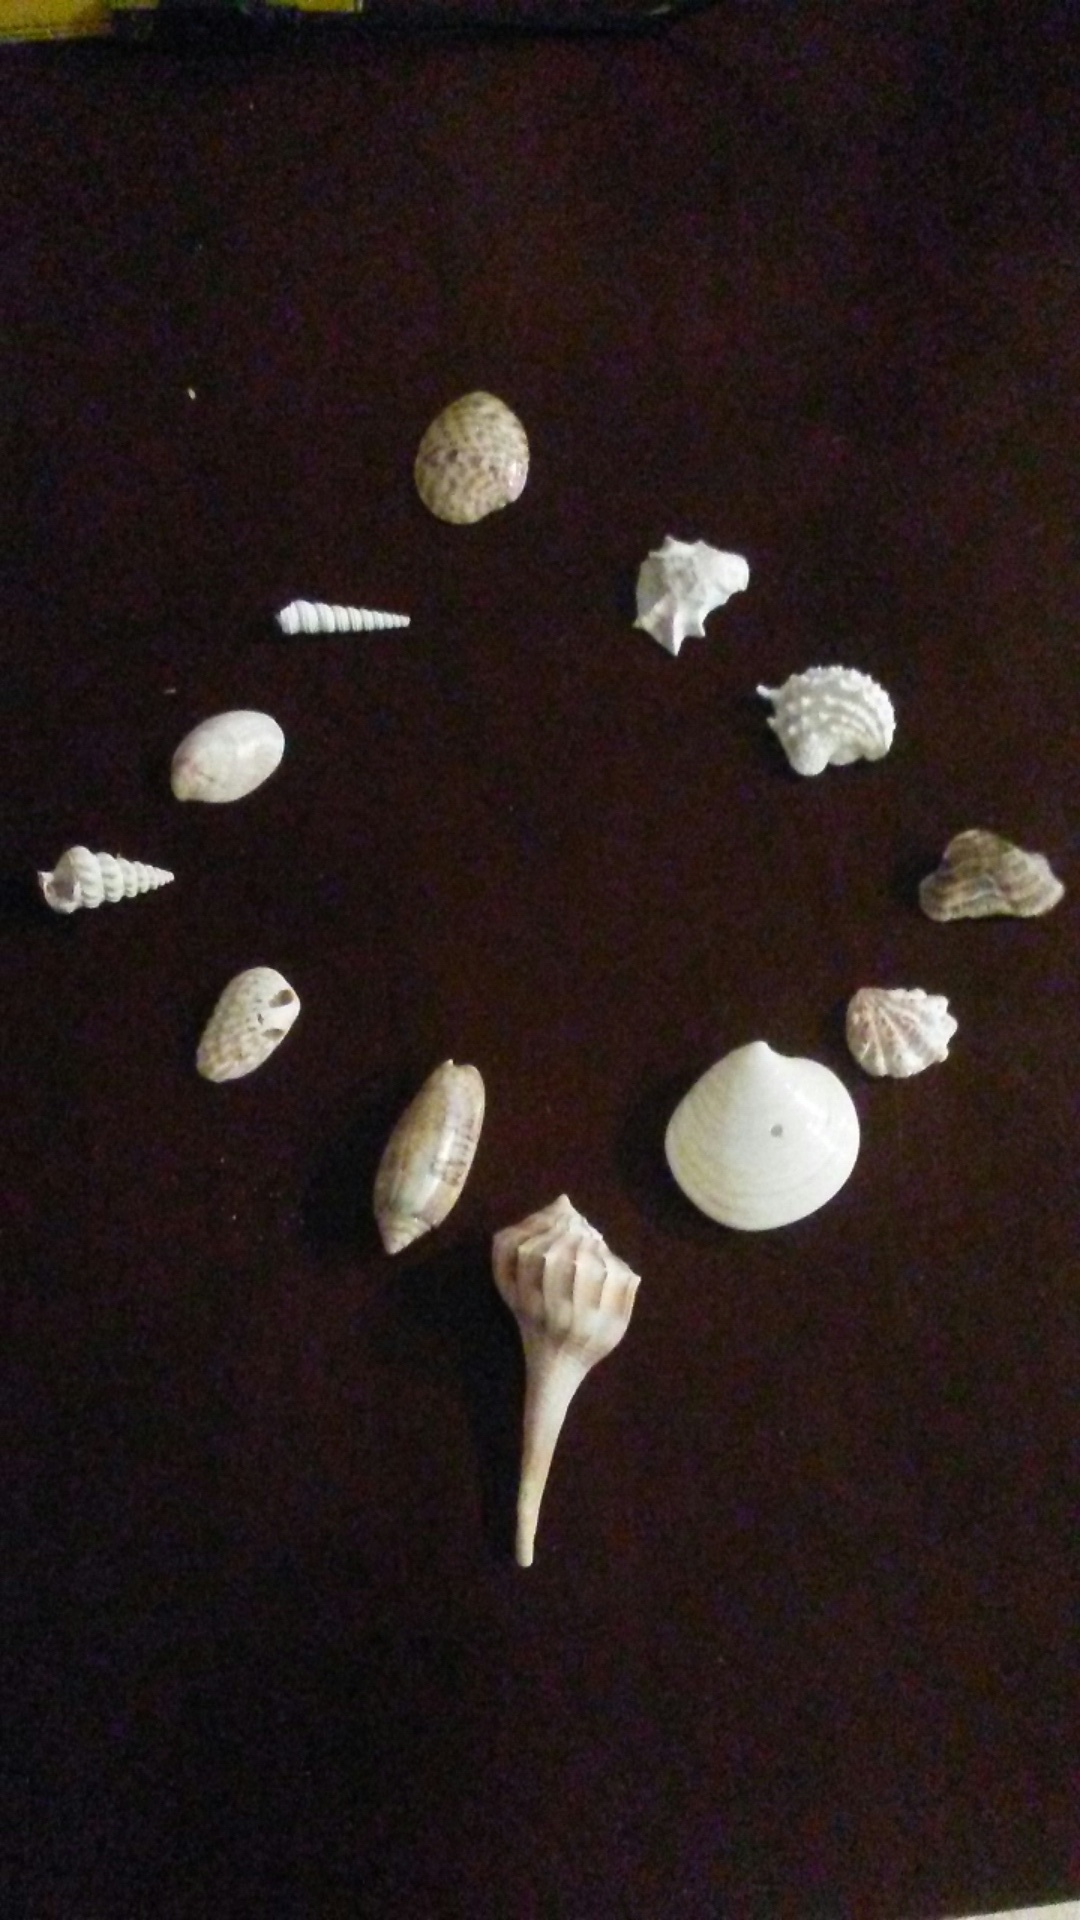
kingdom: Animalia
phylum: Mollusca
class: Bivalvia
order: Pectinida
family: Plicatulidae
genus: Plicatula
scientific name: Plicatula gibbosa
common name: Atlantic kitten's paw
